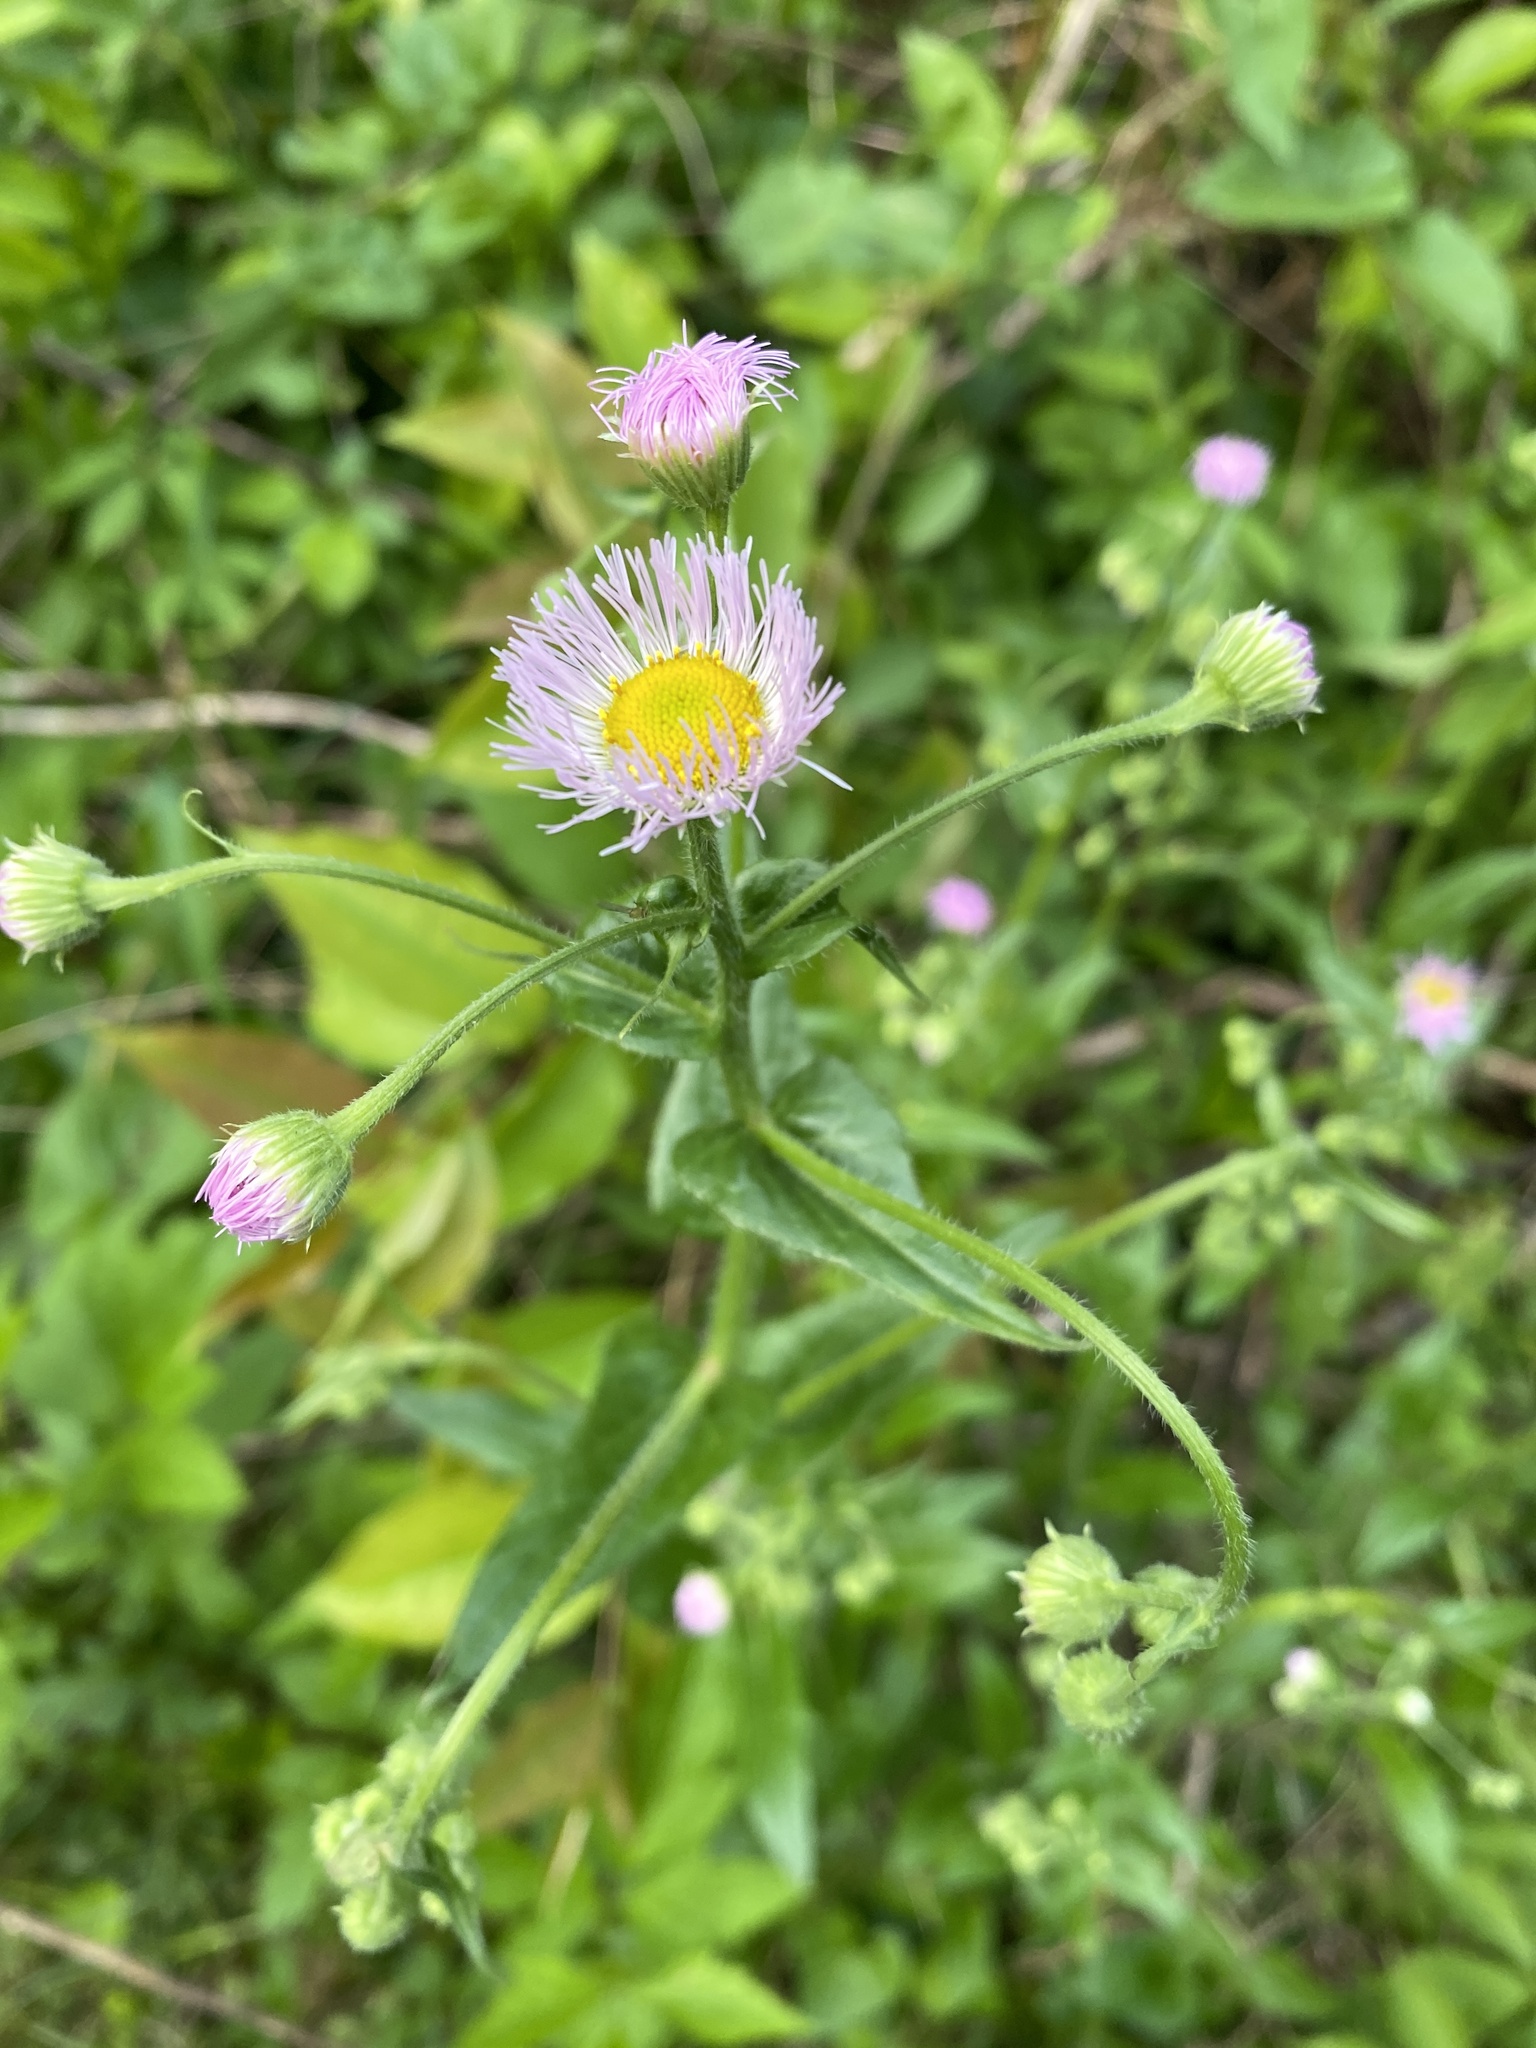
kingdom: Plantae
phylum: Tracheophyta
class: Magnoliopsida
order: Asterales
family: Asteraceae
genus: Erigeron
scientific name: Erigeron philadelphicus
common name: Robin's-plantain
